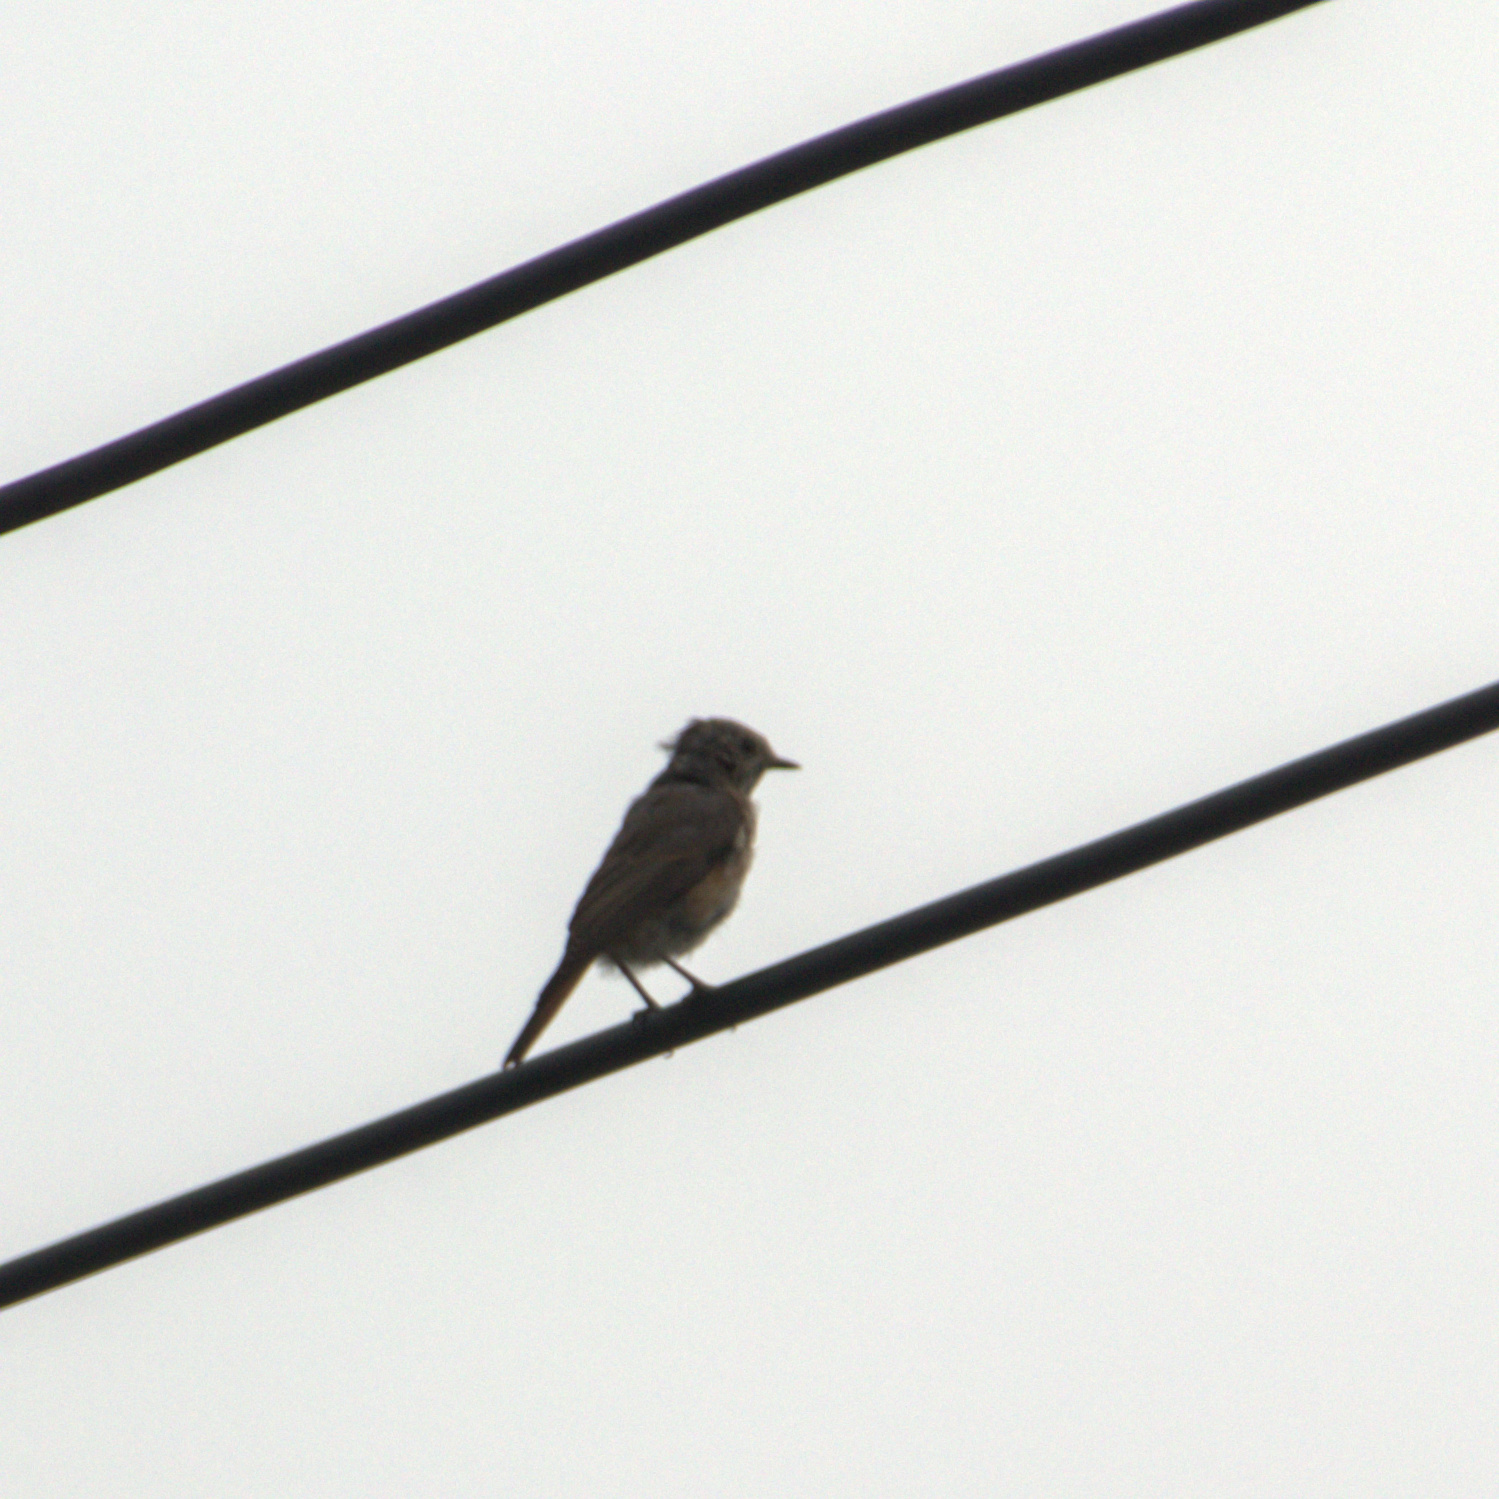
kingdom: Animalia
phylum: Chordata
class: Aves
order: Passeriformes
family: Muscicapidae
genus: Phoenicurus
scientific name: Phoenicurus phoenicurus
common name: Common redstart
